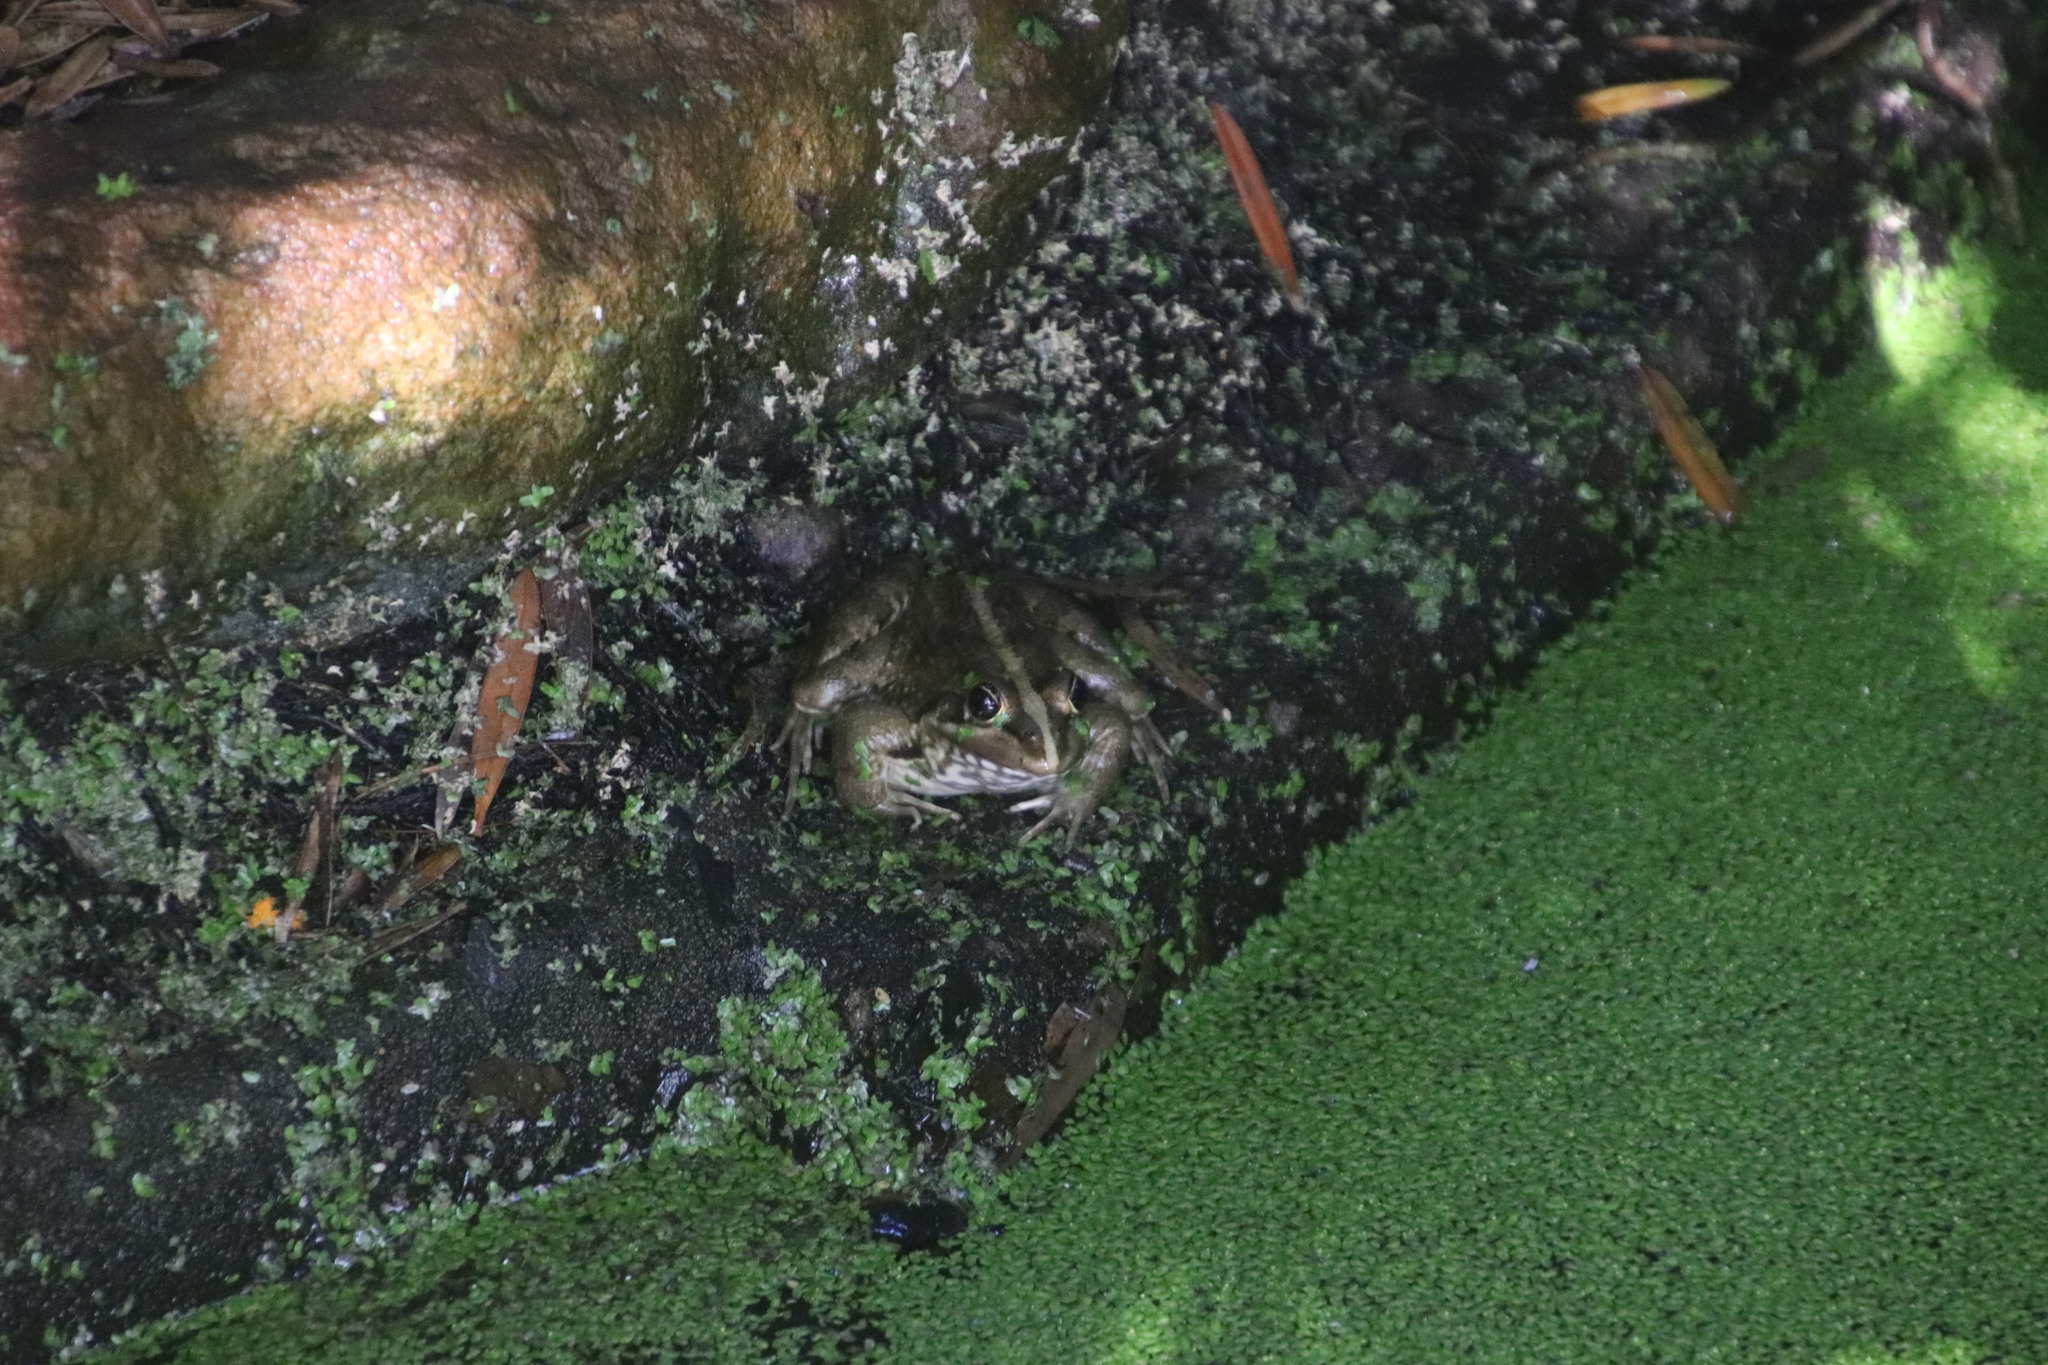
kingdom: Animalia
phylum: Chordata
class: Amphibia
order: Anura
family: Pyxicephalidae
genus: Amietia
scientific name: Amietia fuscigula
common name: Cape rana
